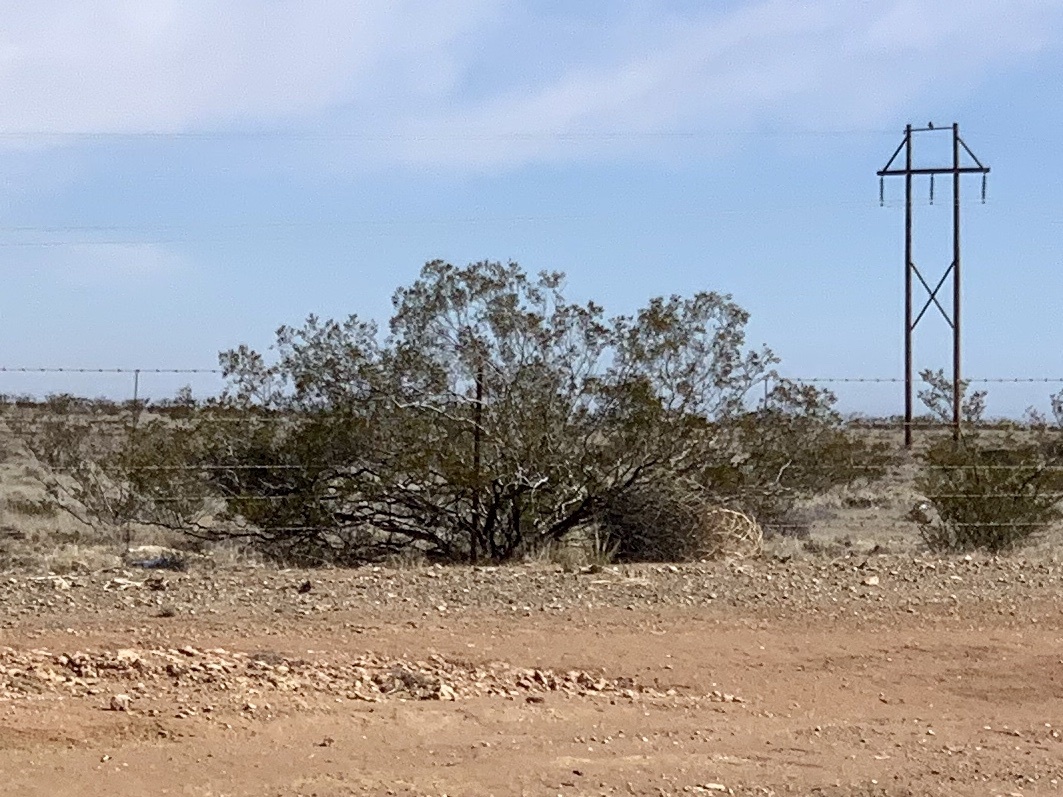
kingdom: Plantae
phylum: Tracheophyta
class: Magnoliopsida
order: Zygophyllales
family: Zygophyllaceae
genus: Larrea
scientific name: Larrea tridentata
